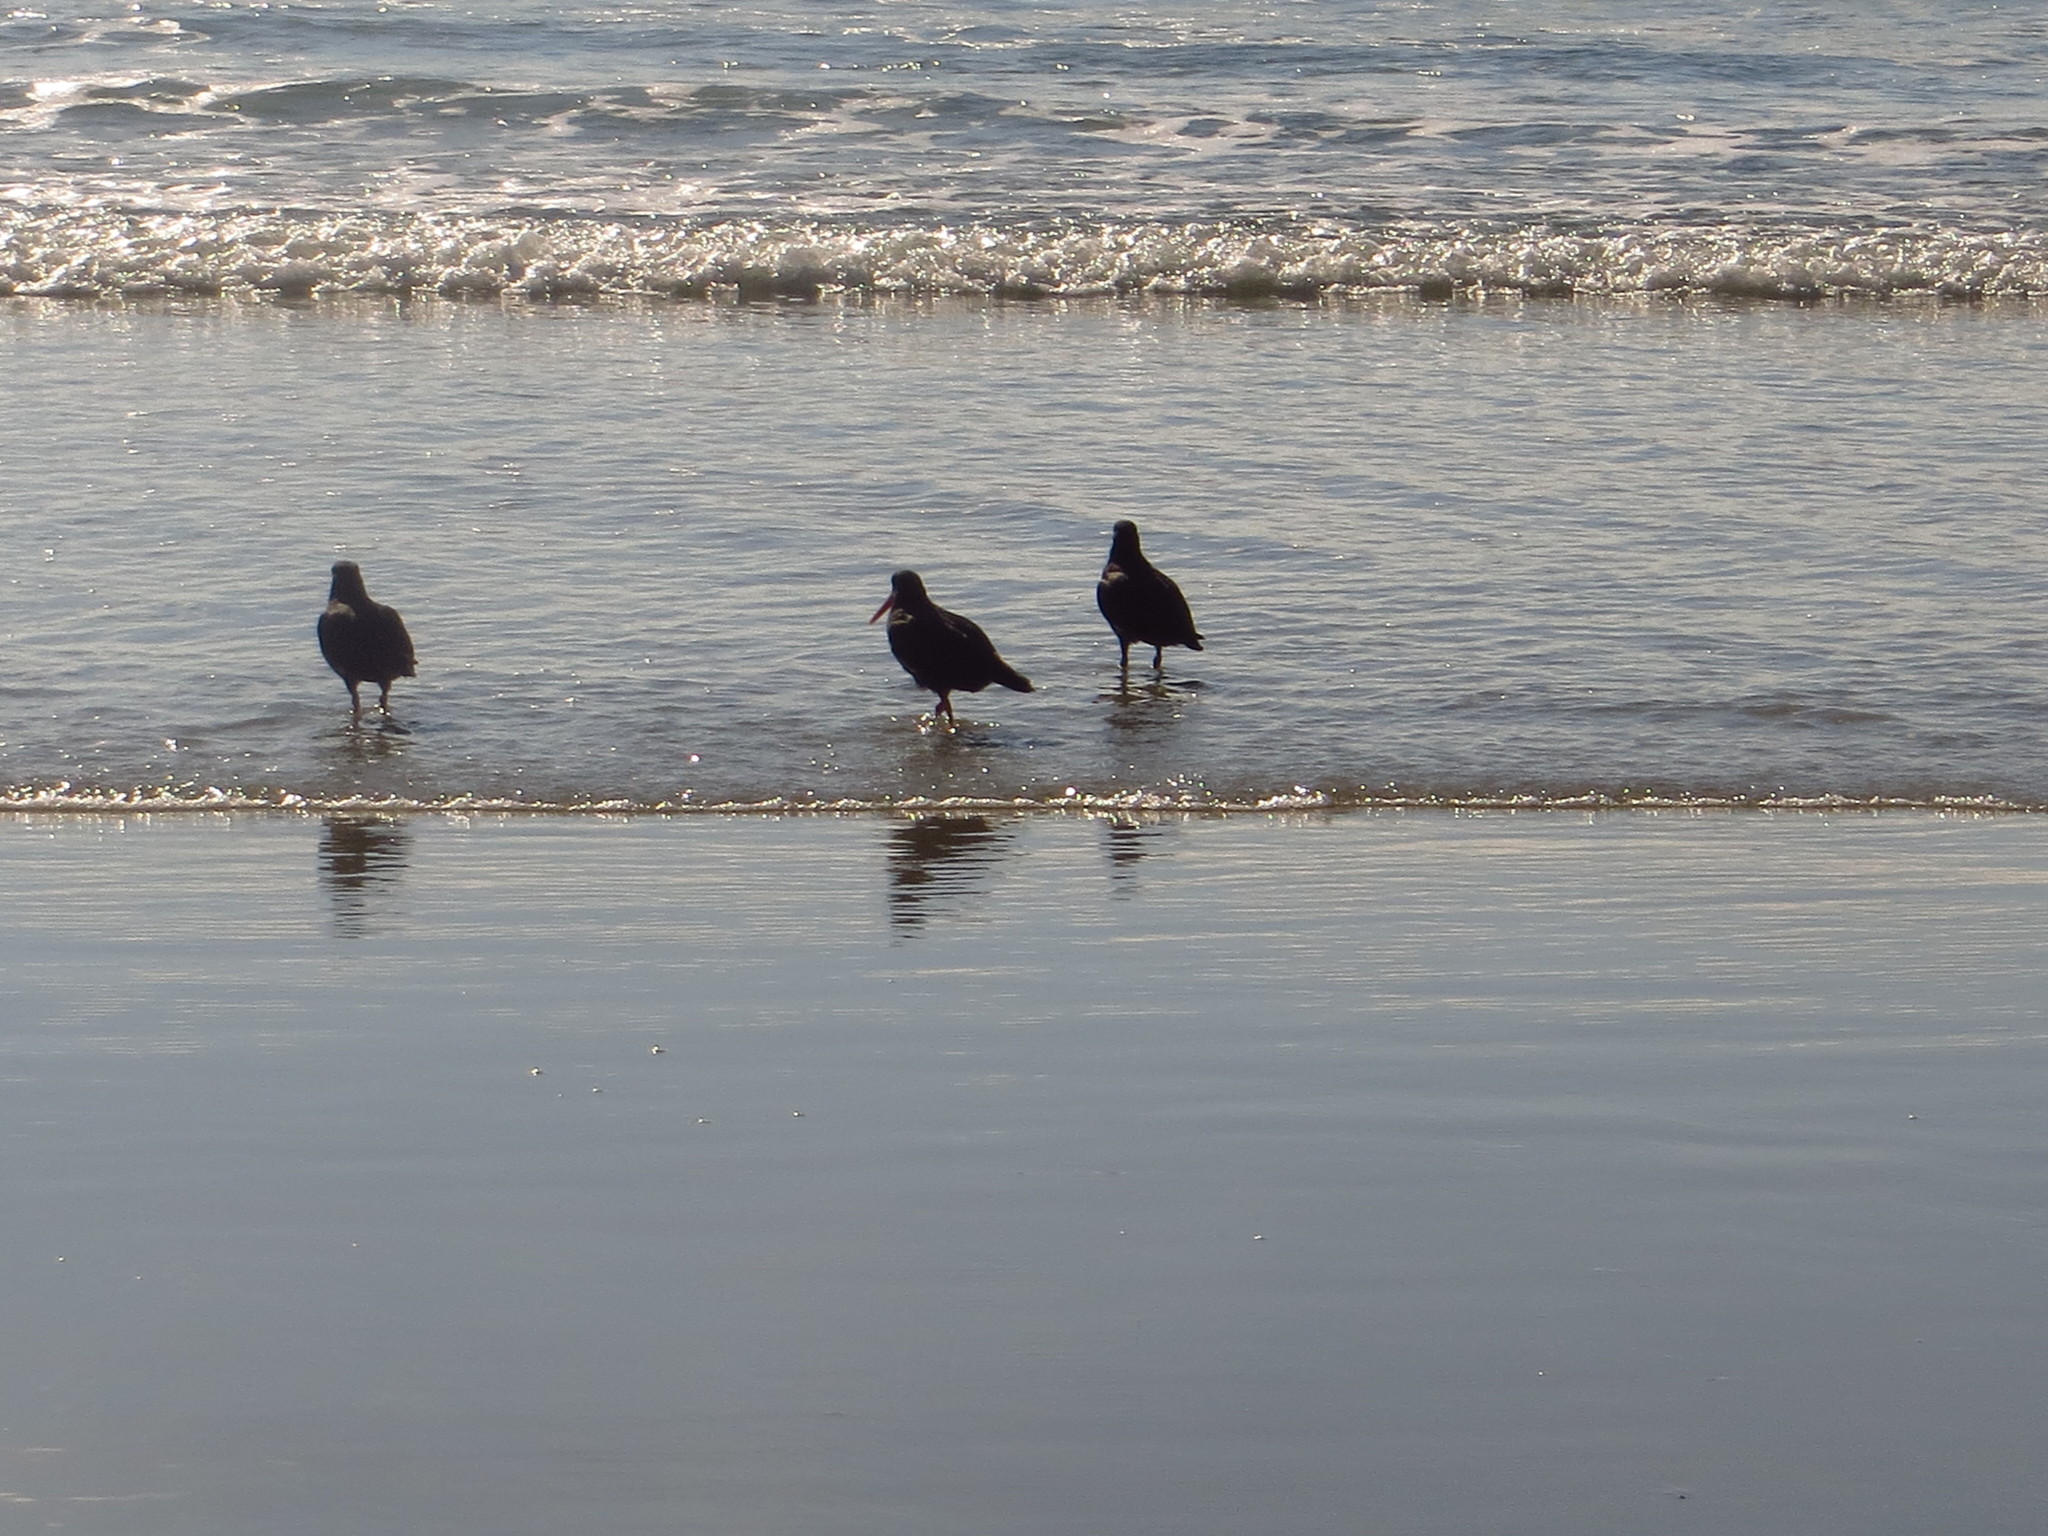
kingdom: Animalia
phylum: Chordata
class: Aves
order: Charadriiformes
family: Haematopodidae
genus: Haematopus
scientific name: Haematopus unicolor
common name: Variable oystercatcher
